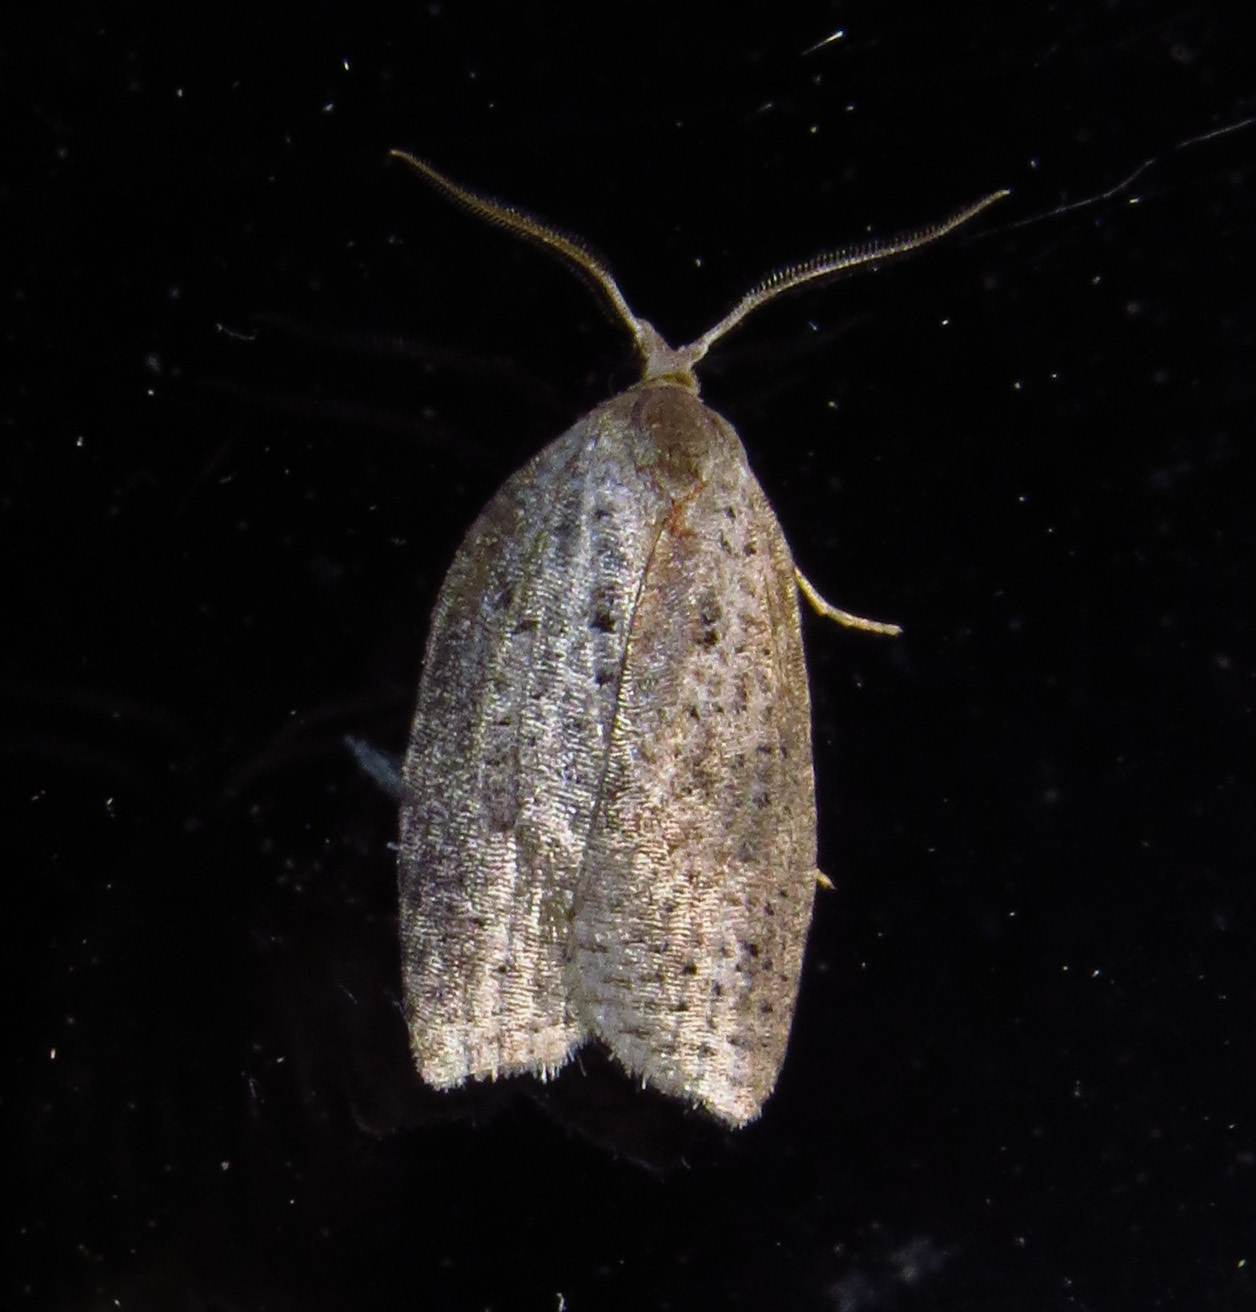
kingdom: Animalia
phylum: Arthropoda
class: Insecta
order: Lepidoptera
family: Tortricidae
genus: Amorbia
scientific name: Amorbia humerosana
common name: White-lined leafroller moth
